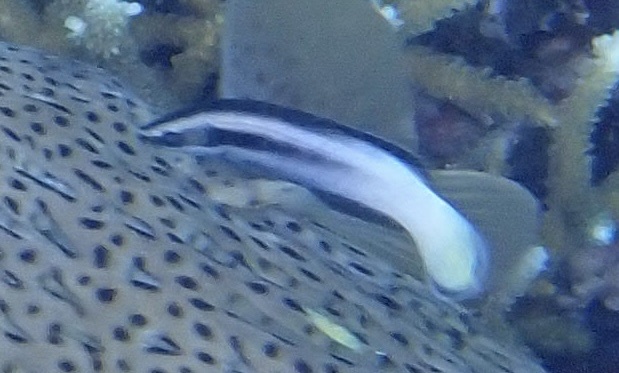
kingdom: Animalia
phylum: Chordata
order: Perciformes
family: Labridae
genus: Labroides
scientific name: Labroides bicolor
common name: Bicolor cleaner wrasse
